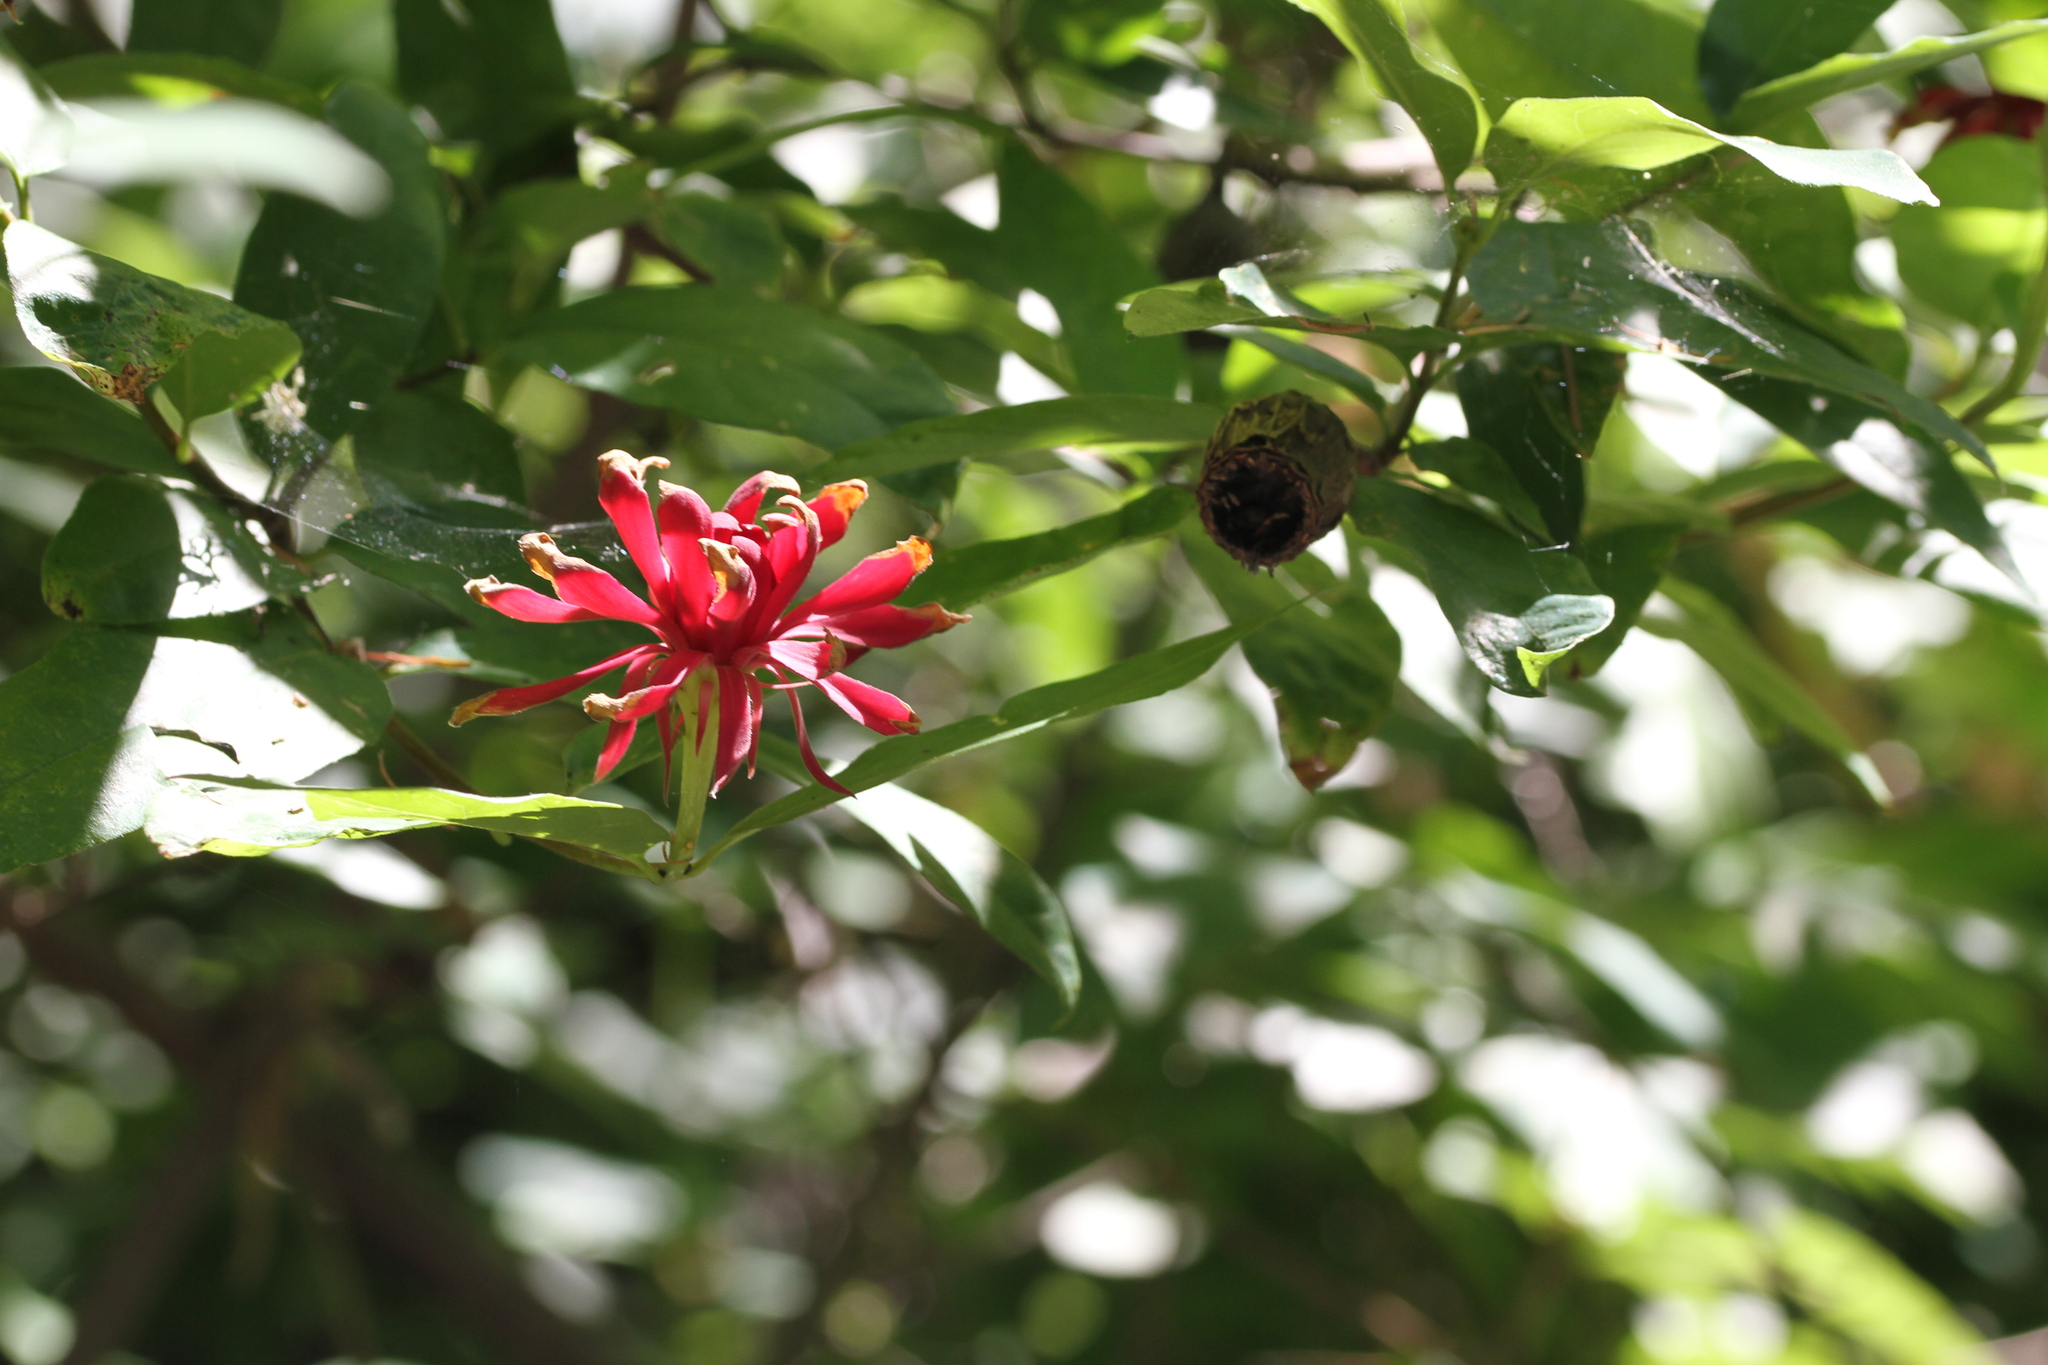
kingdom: Plantae
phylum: Tracheophyta
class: Magnoliopsida
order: Laurales
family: Calycanthaceae
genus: Calycanthus
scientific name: Calycanthus occidentalis
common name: California spicebush
